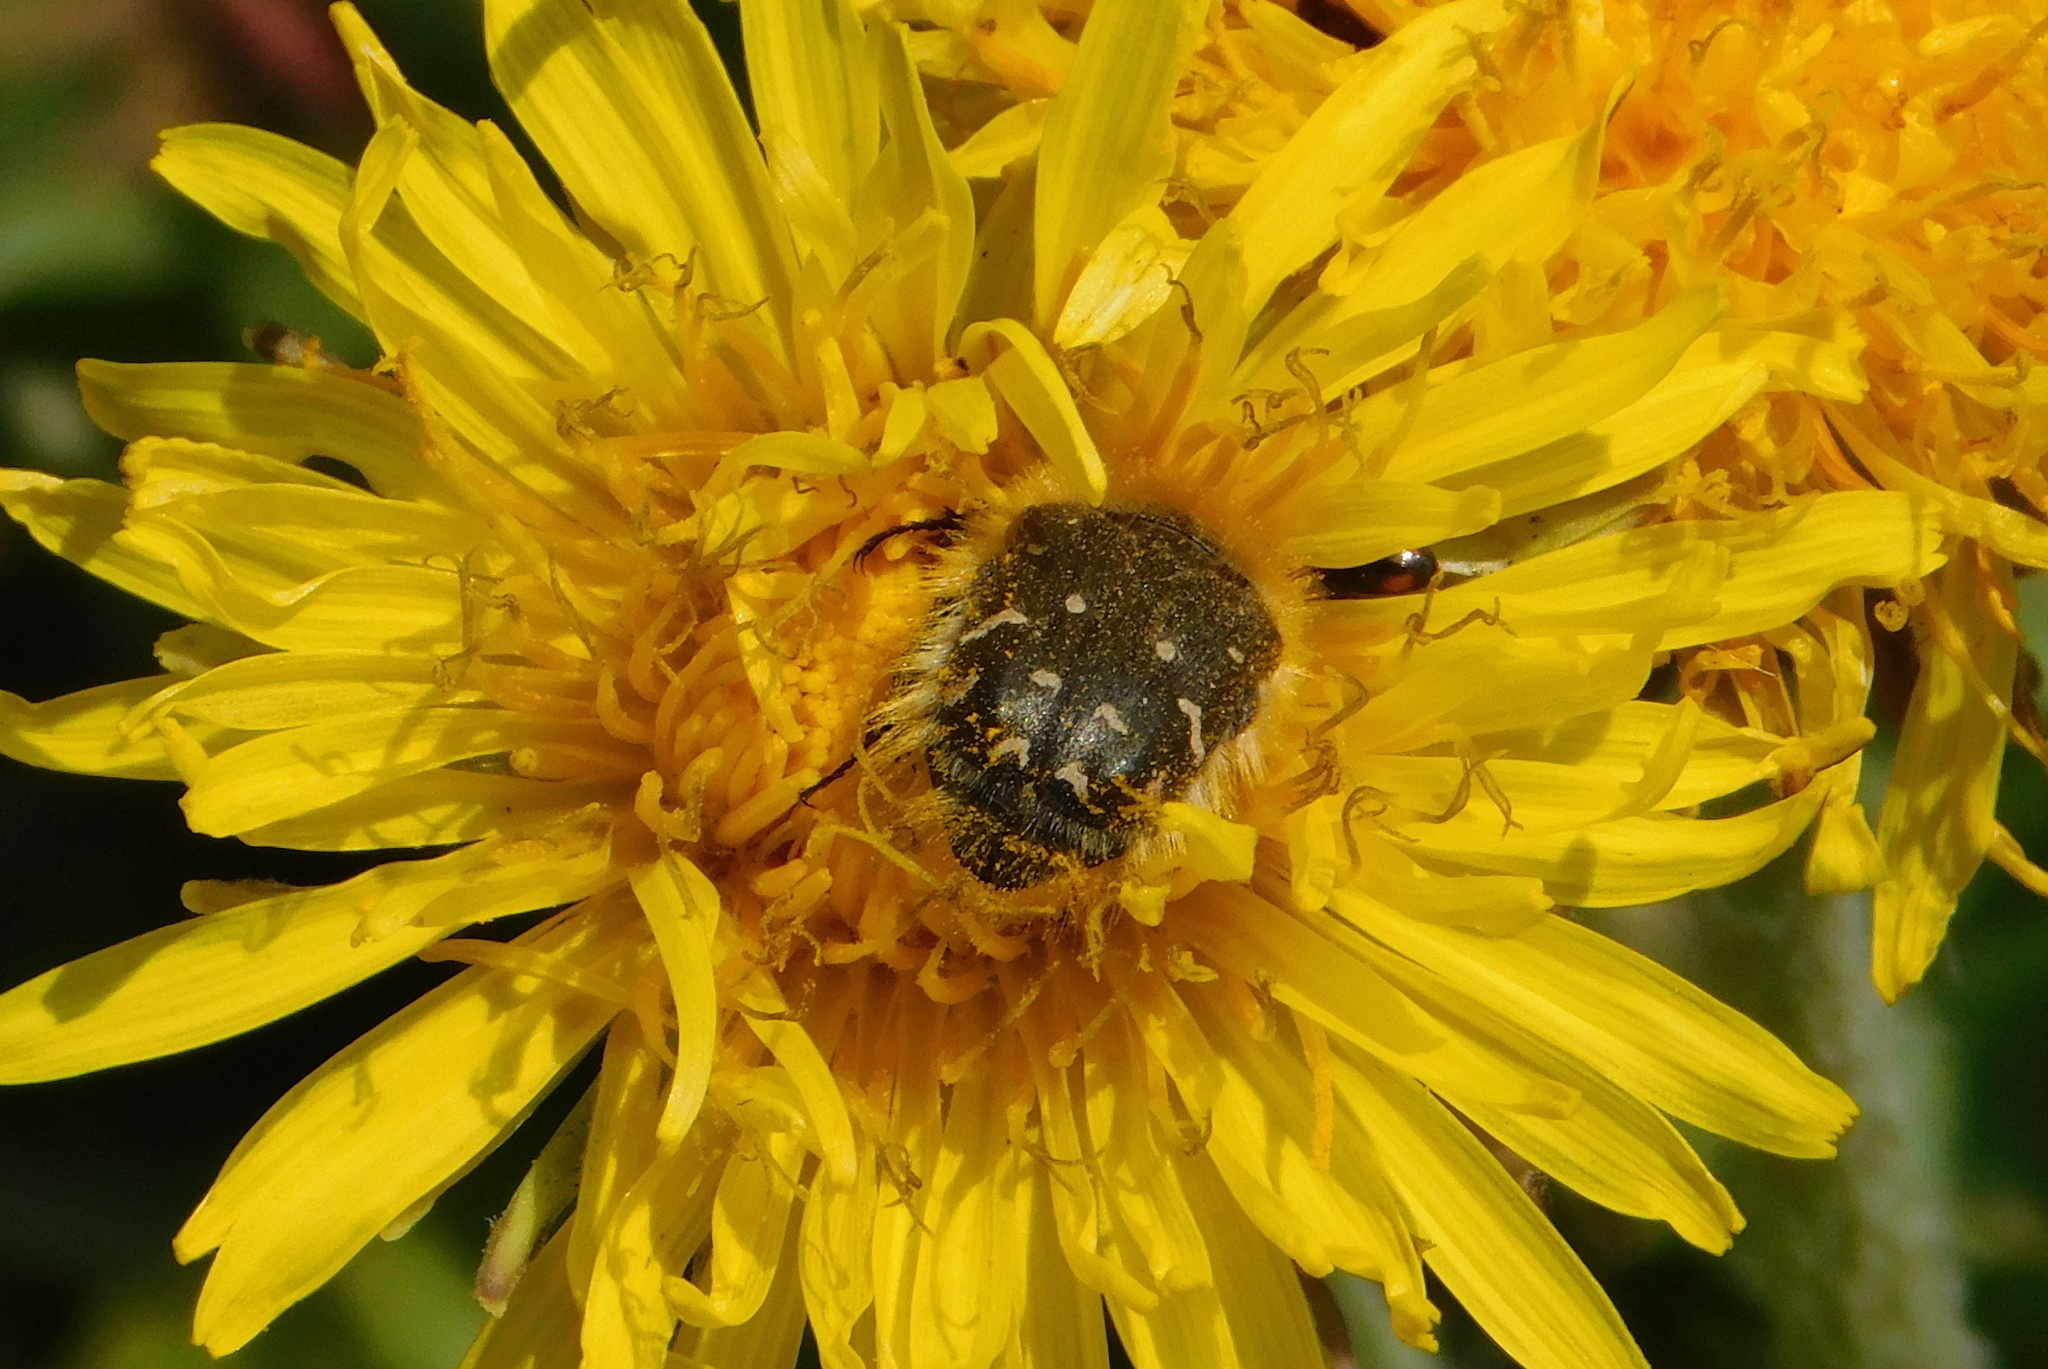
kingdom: Animalia
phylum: Arthropoda
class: Insecta
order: Coleoptera
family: Scarabaeidae
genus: Tropinota
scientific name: Tropinota hirta
